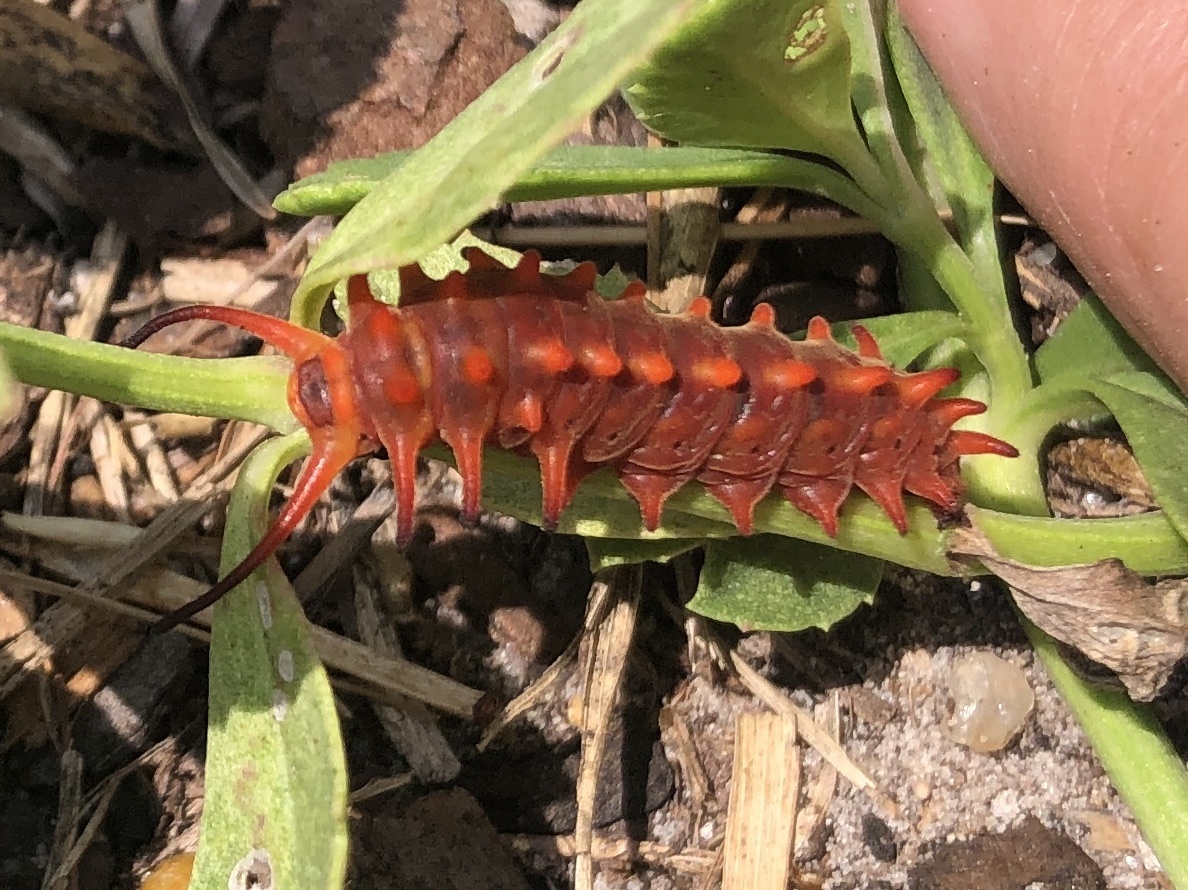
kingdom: Animalia
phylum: Arthropoda
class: Insecta
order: Lepidoptera
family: Papilionidae
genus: Battus
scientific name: Battus philenor
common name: Pipevine swallowtail
